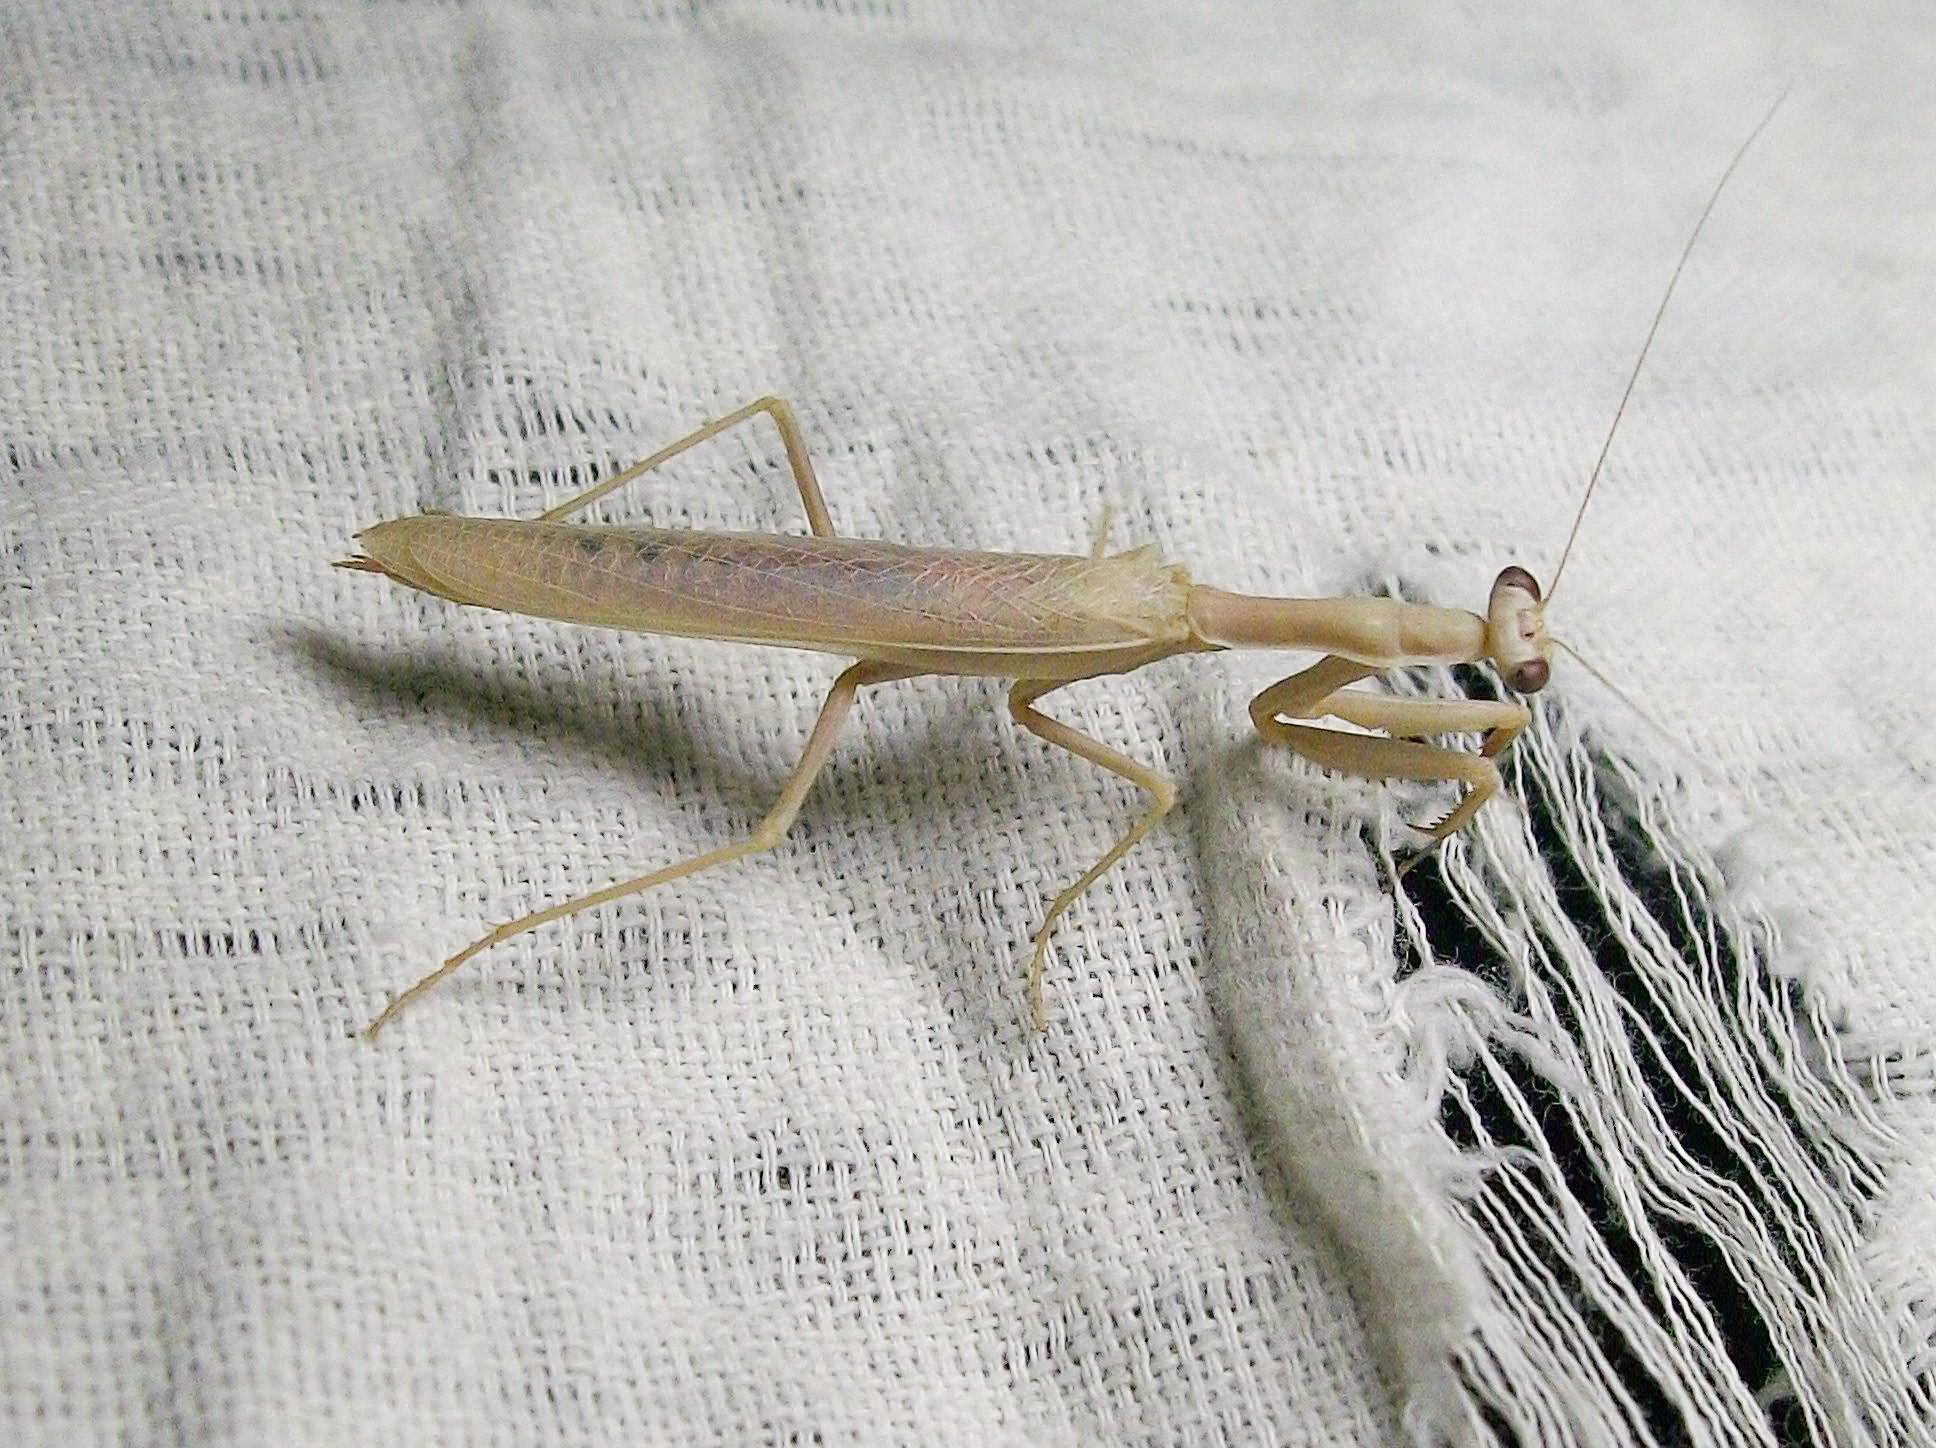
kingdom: Animalia
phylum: Arthropoda
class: Insecta
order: Mantodea
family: Eremiaphilidae
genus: Iris
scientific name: Iris polystictica
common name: Dot-winged mantis
